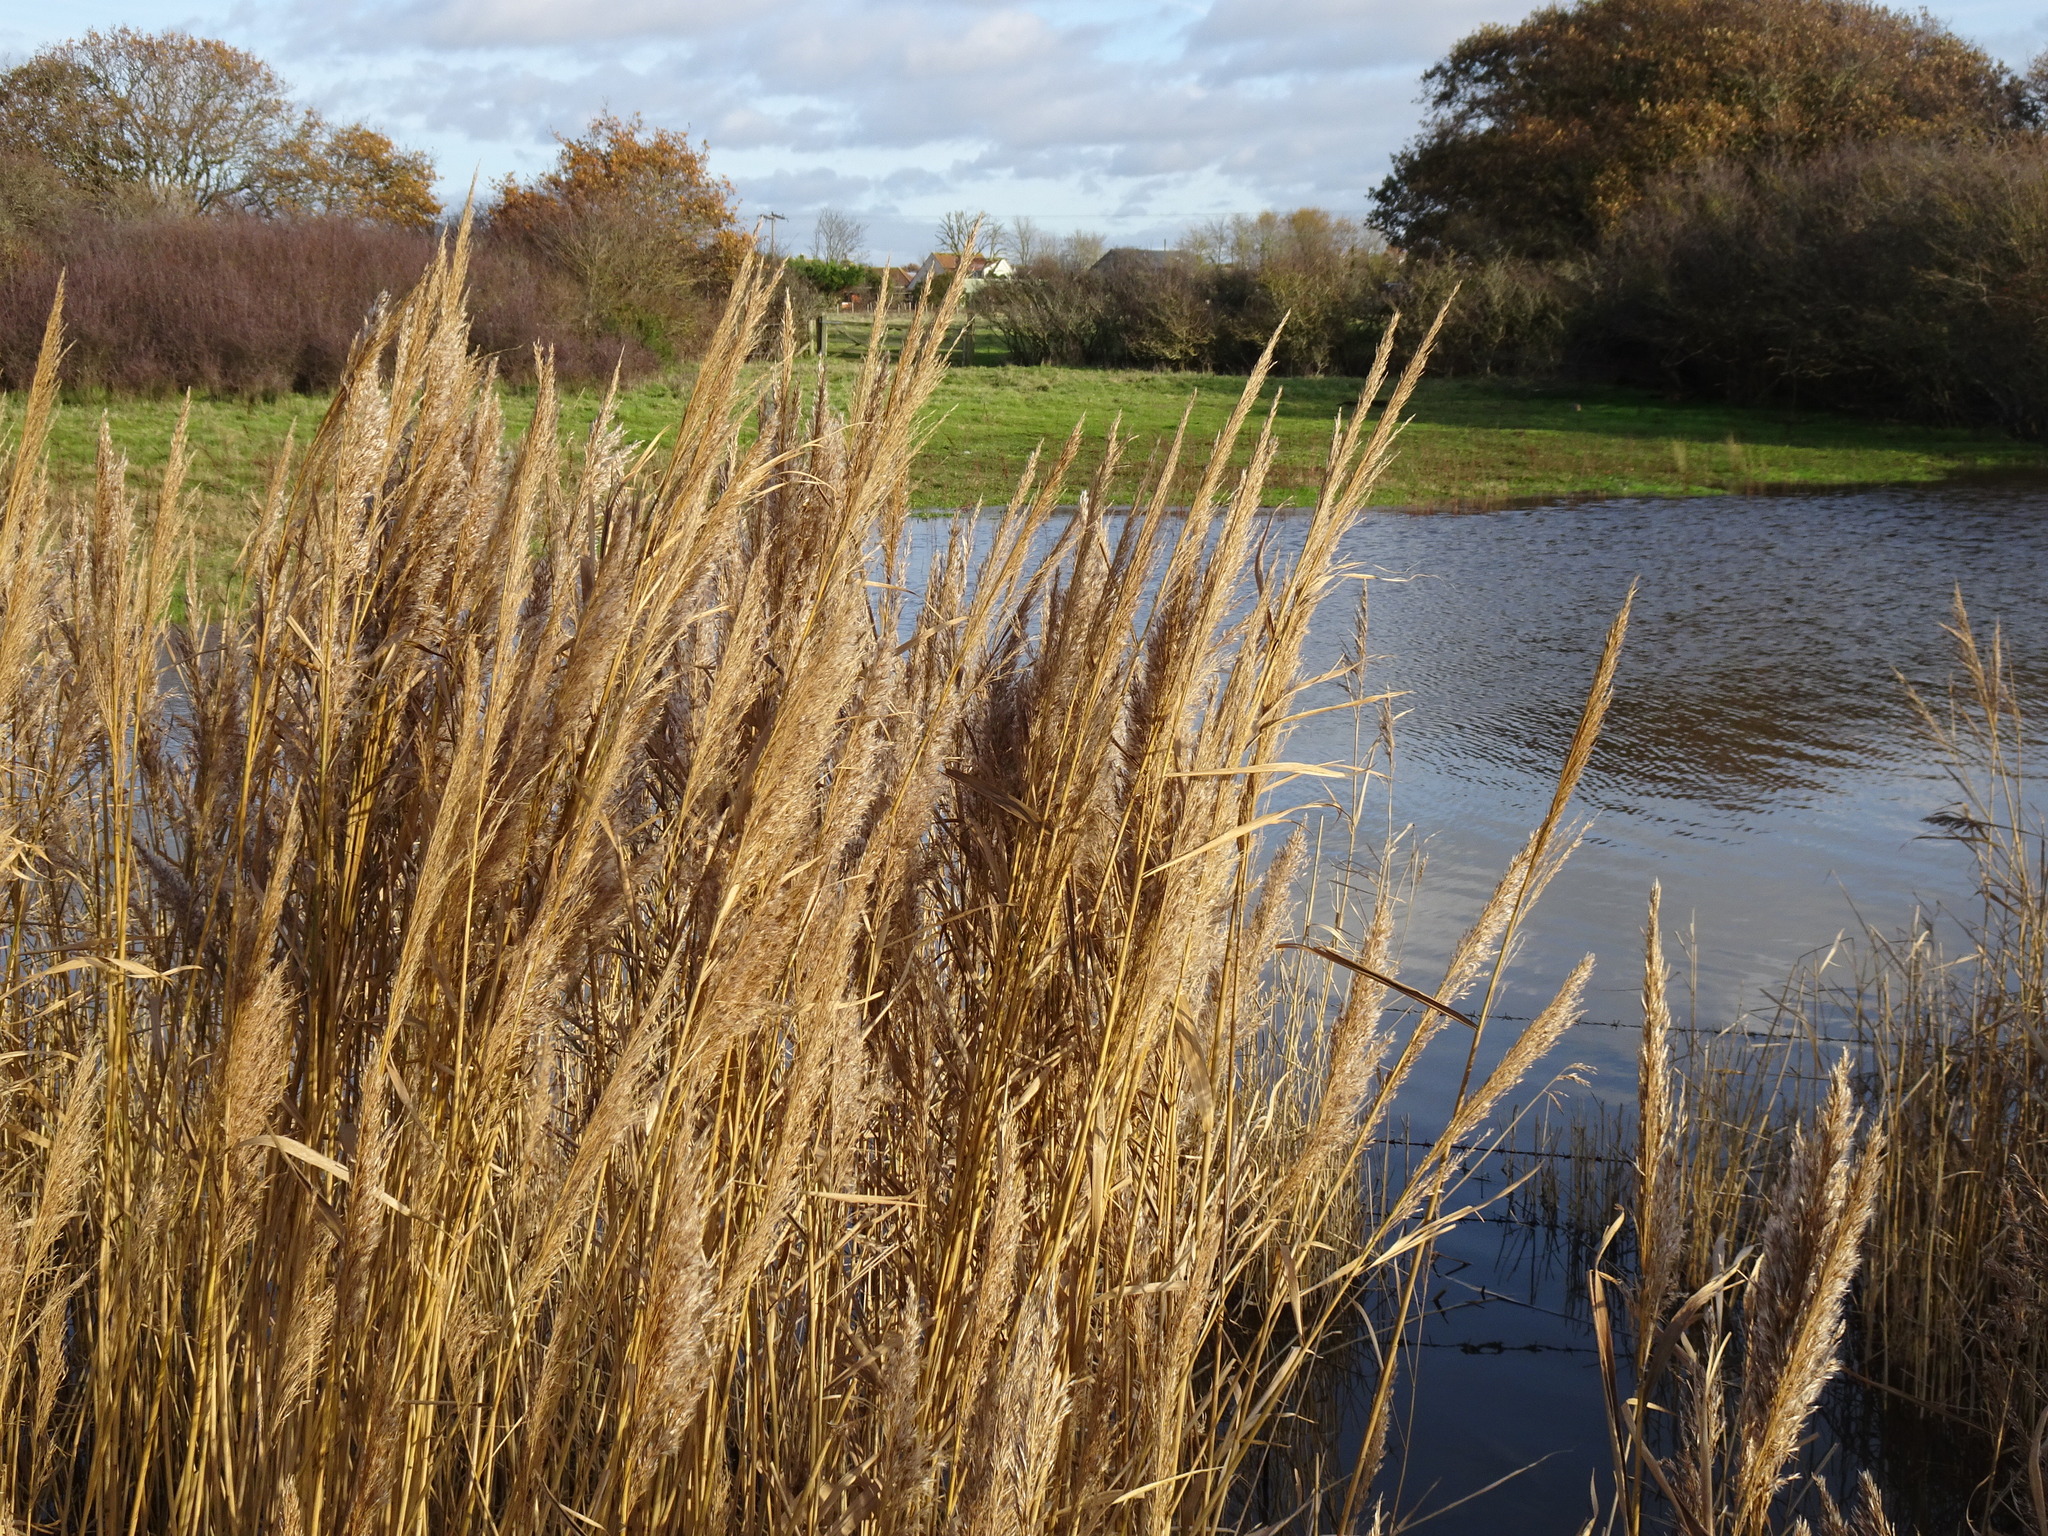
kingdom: Plantae
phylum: Tracheophyta
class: Liliopsida
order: Poales
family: Poaceae
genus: Phragmites
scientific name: Phragmites australis
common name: Common reed
